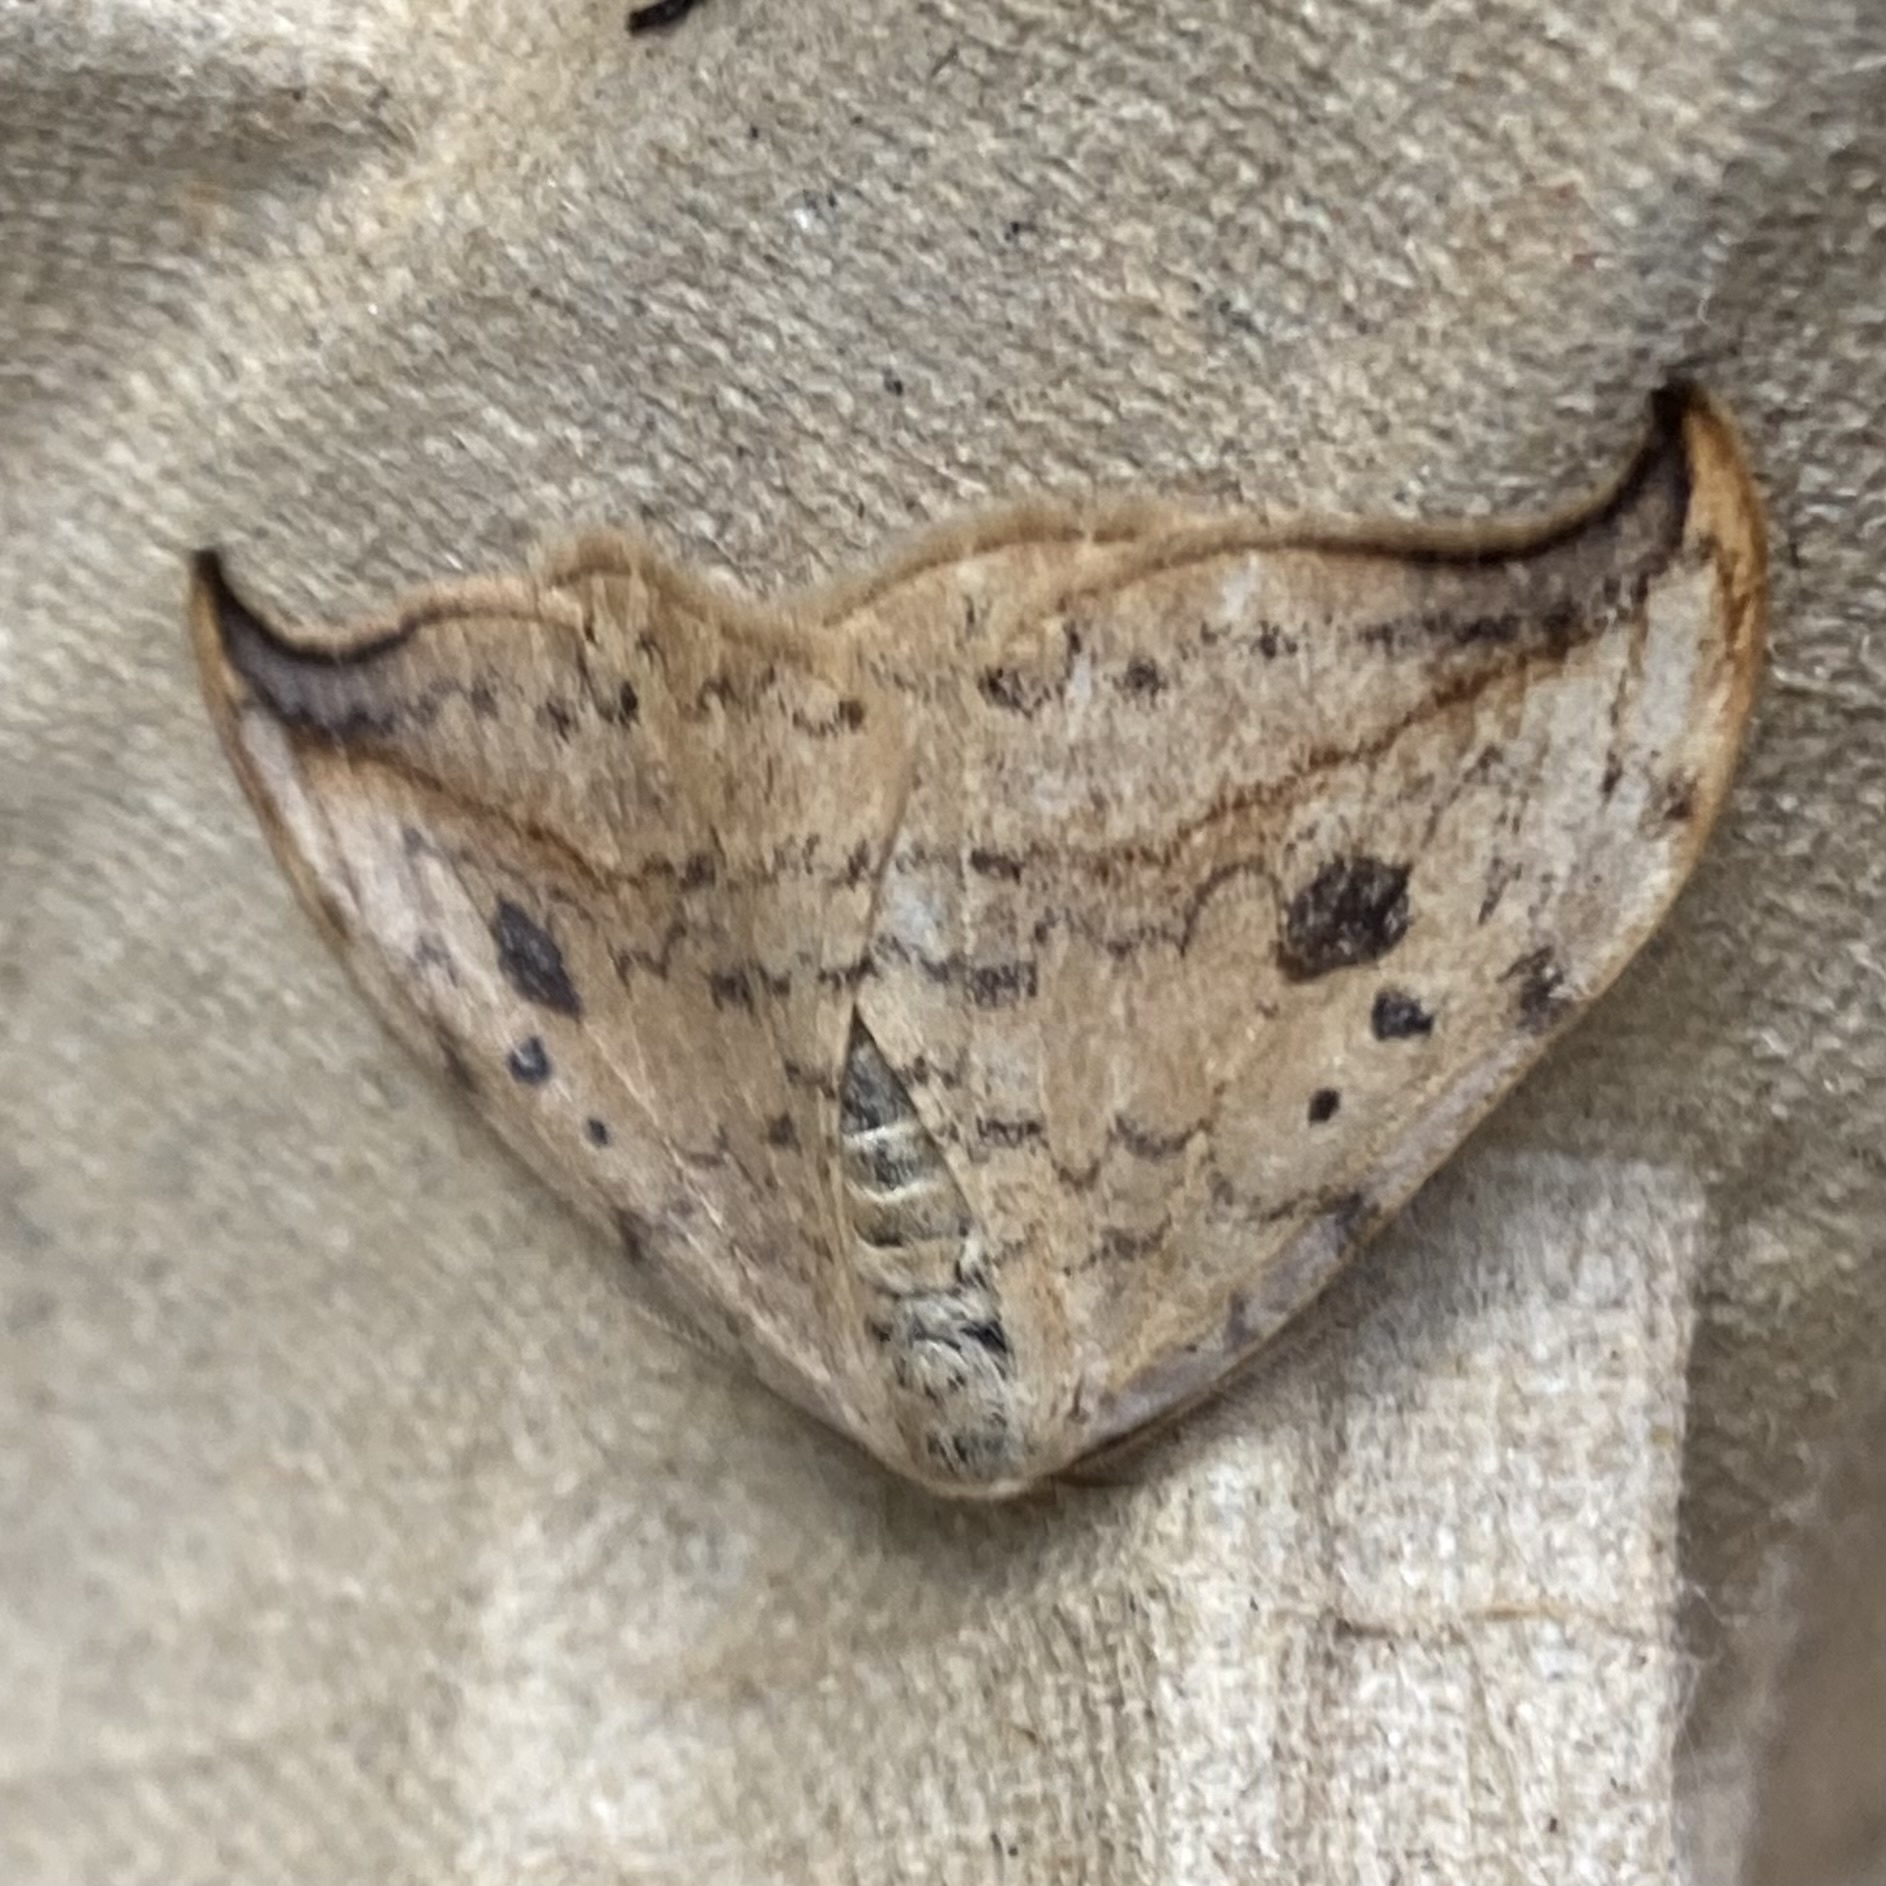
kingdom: Animalia
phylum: Arthropoda
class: Insecta
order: Lepidoptera
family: Drepanidae
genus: Drepana
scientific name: Drepana falcataria
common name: Pebble hook-tip
